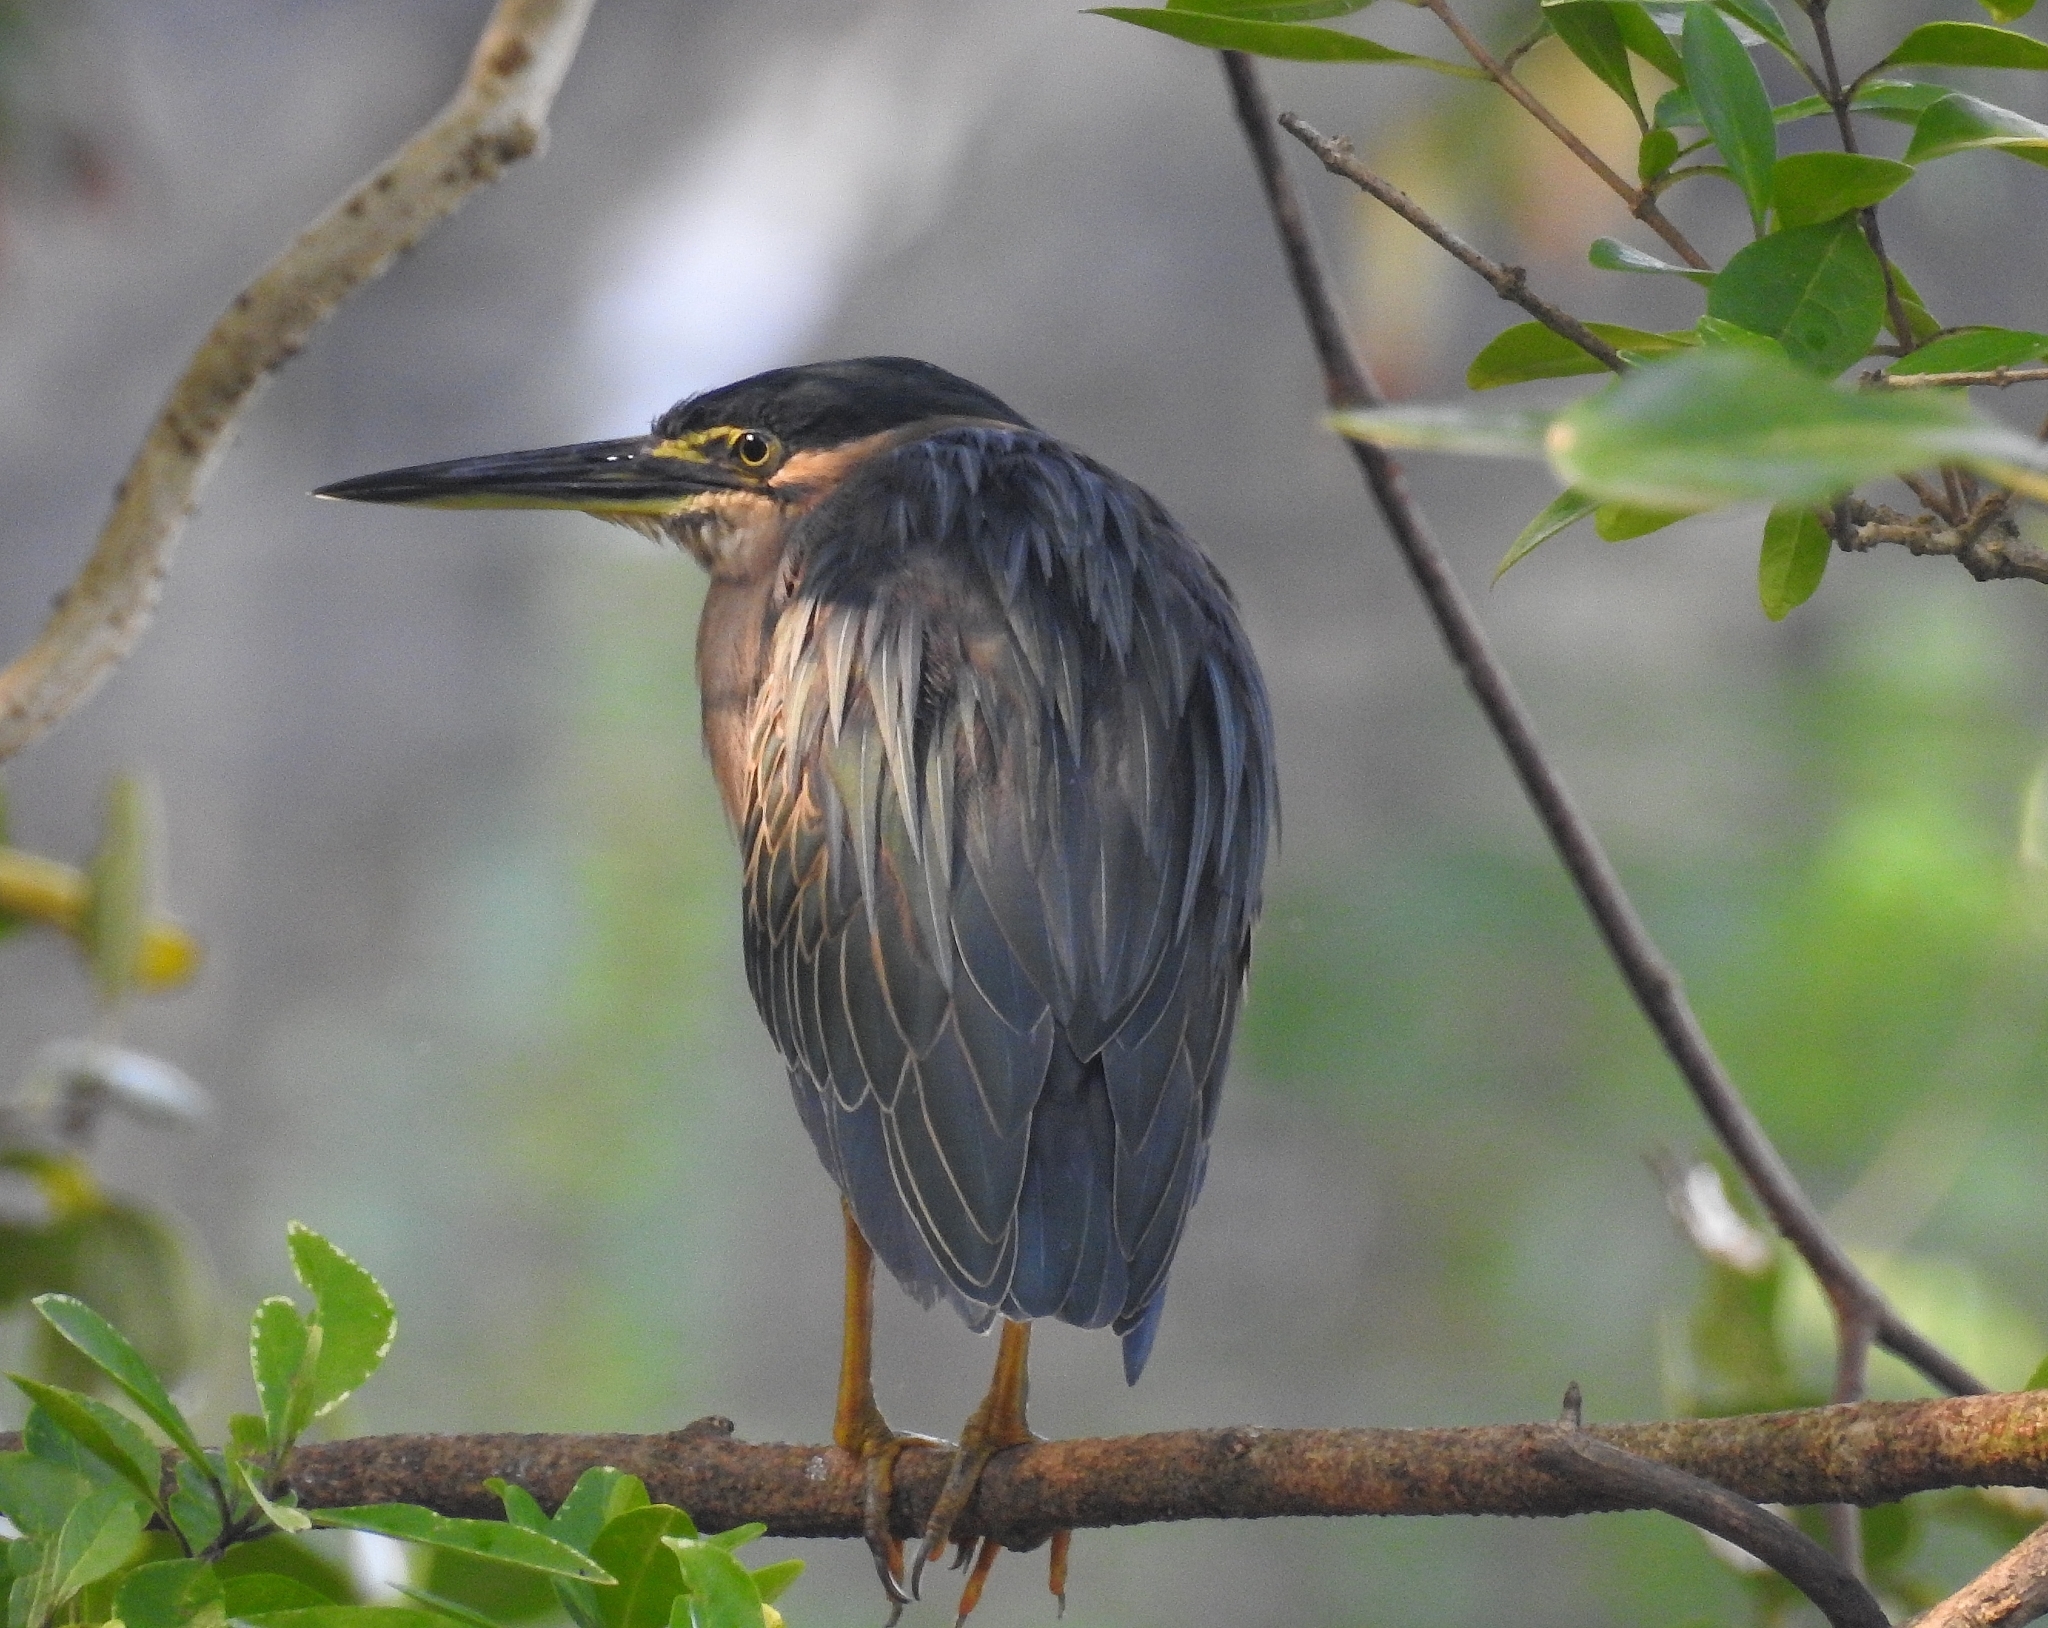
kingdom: Animalia
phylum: Chordata
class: Aves
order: Pelecaniformes
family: Ardeidae
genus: Butorides
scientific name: Butorides striata
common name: Striated heron
